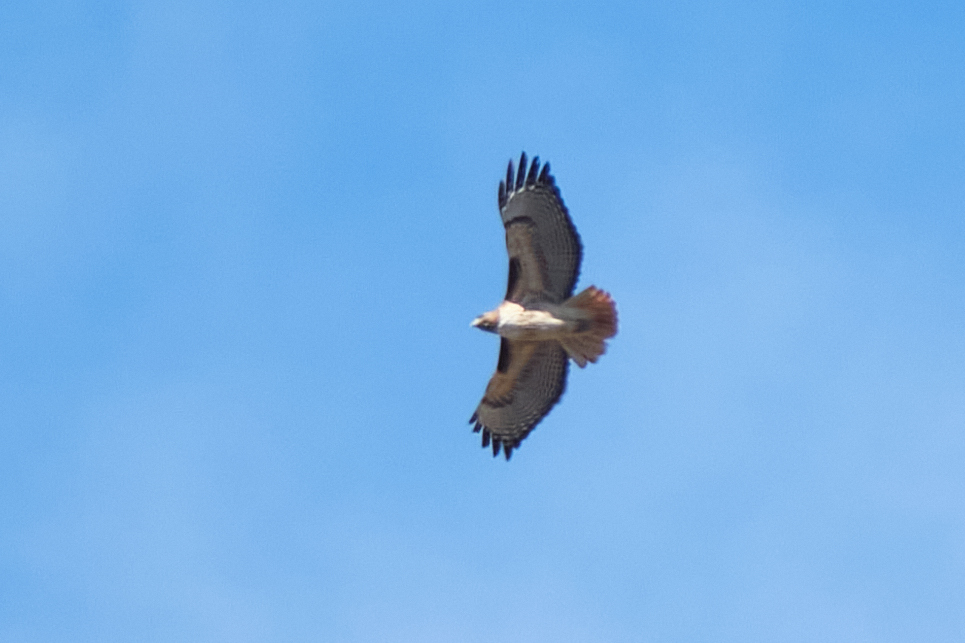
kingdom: Animalia
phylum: Chordata
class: Aves
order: Accipitriformes
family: Accipitridae
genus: Buteo
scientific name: Buteo jamaicensis
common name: Red-tailed hawk
